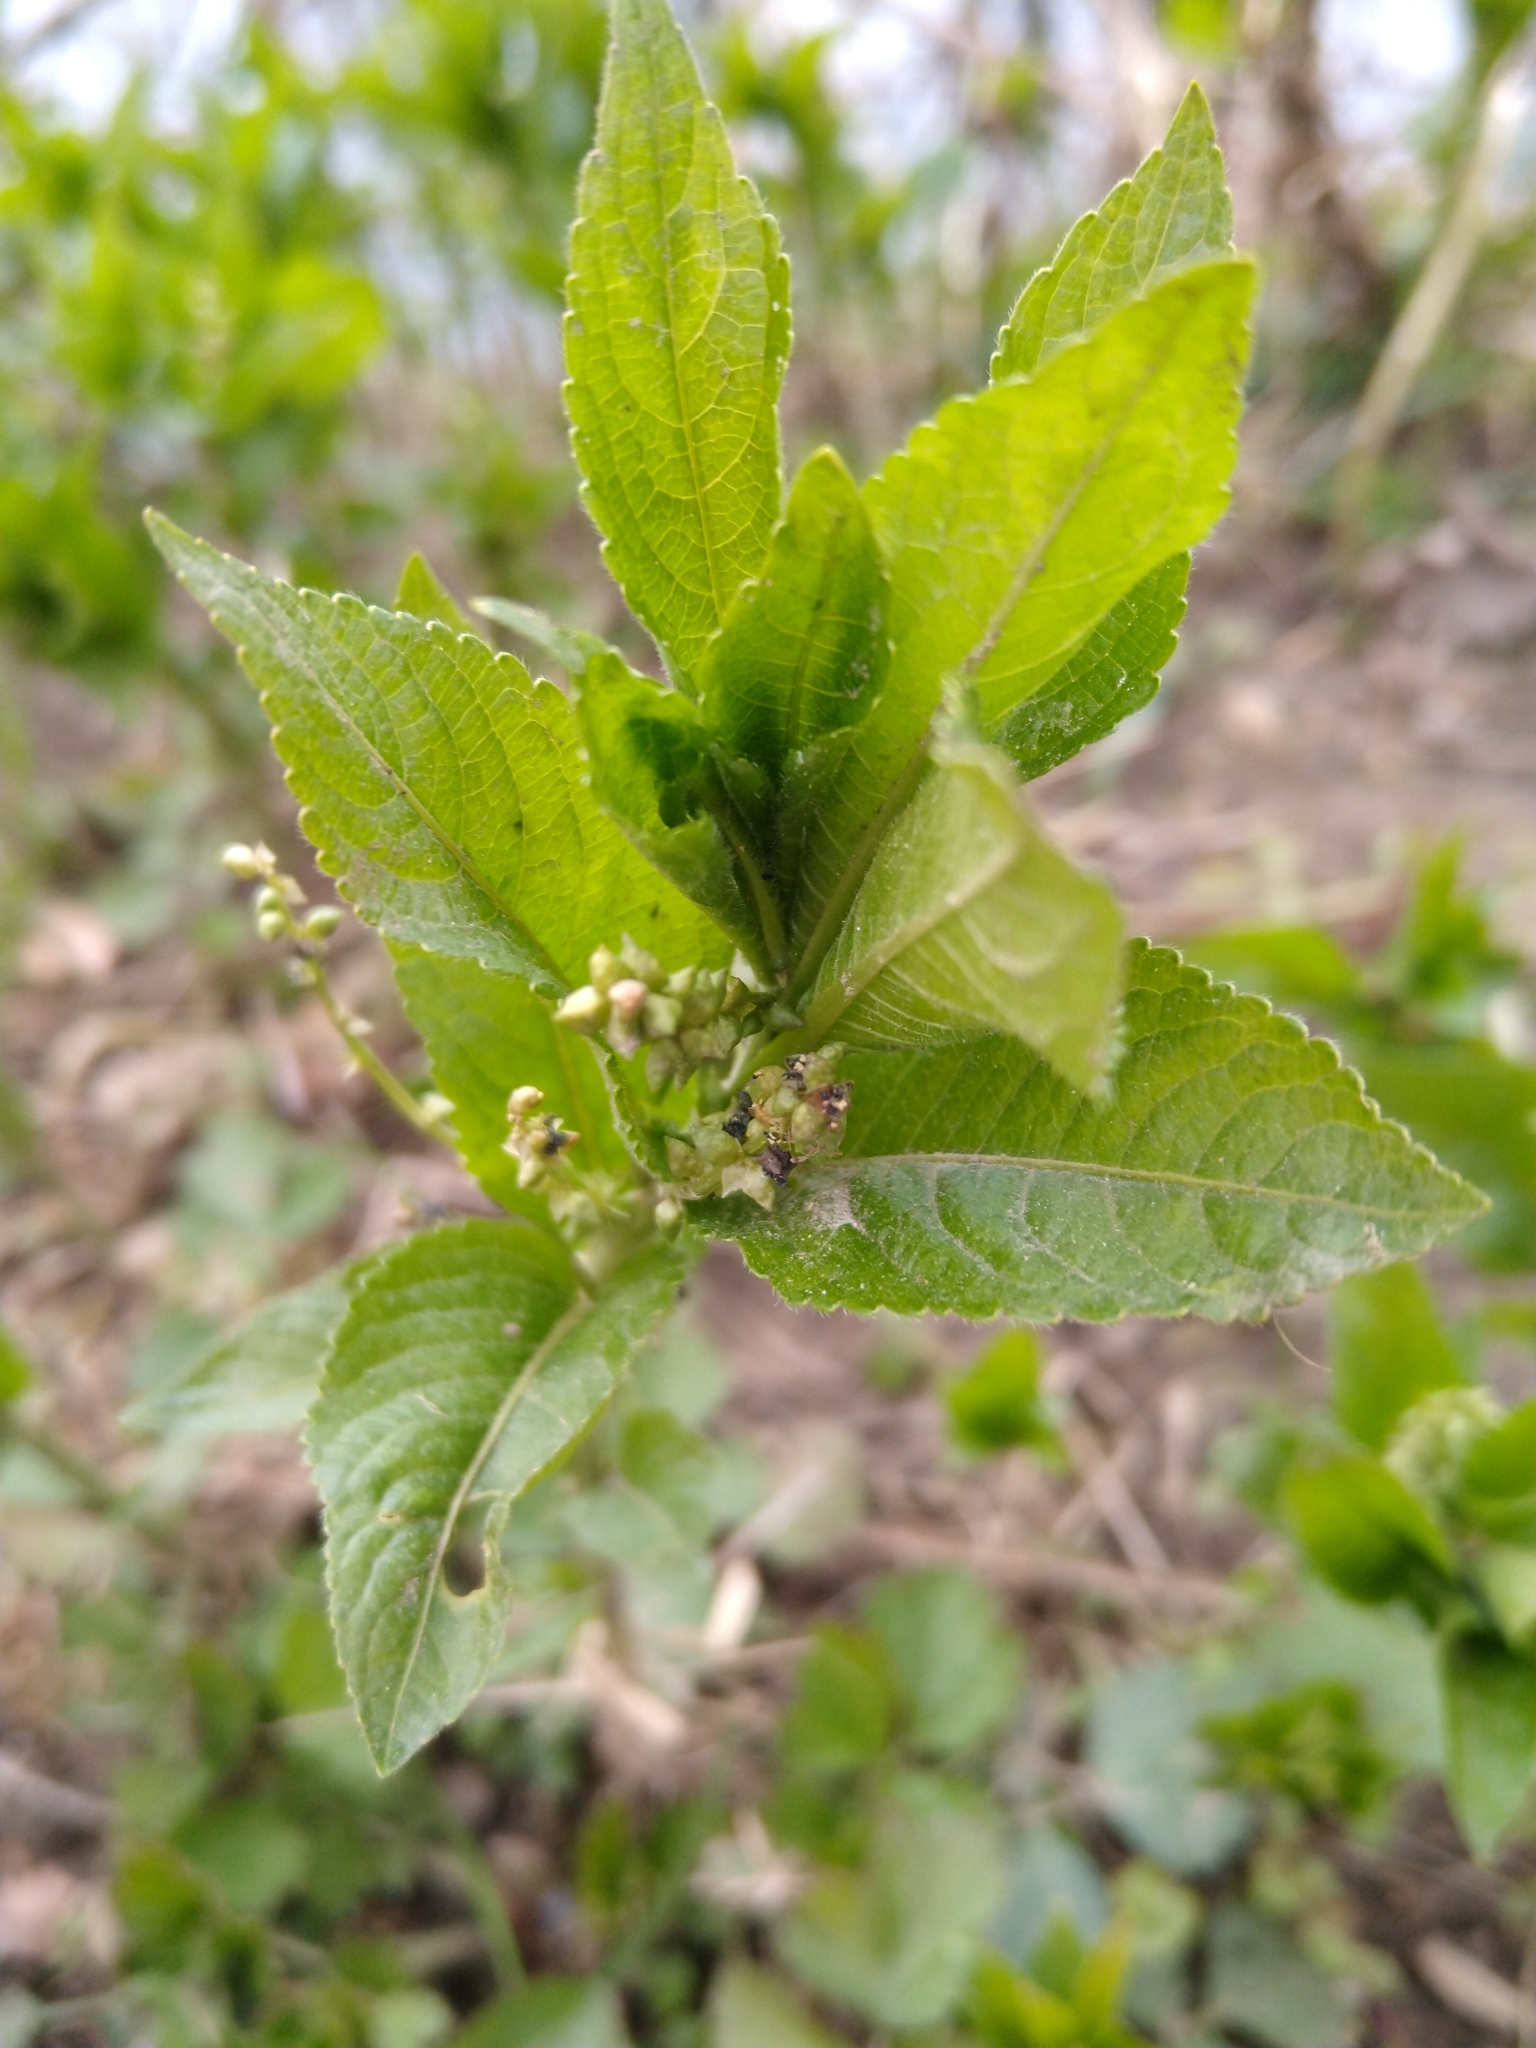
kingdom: Plantae
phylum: Tracheophyta
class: Magnoliopsida
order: Malpighiales
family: Euphorbiaceae
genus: Mercurialis
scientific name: Mercurialis perennis
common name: Dog mercury
